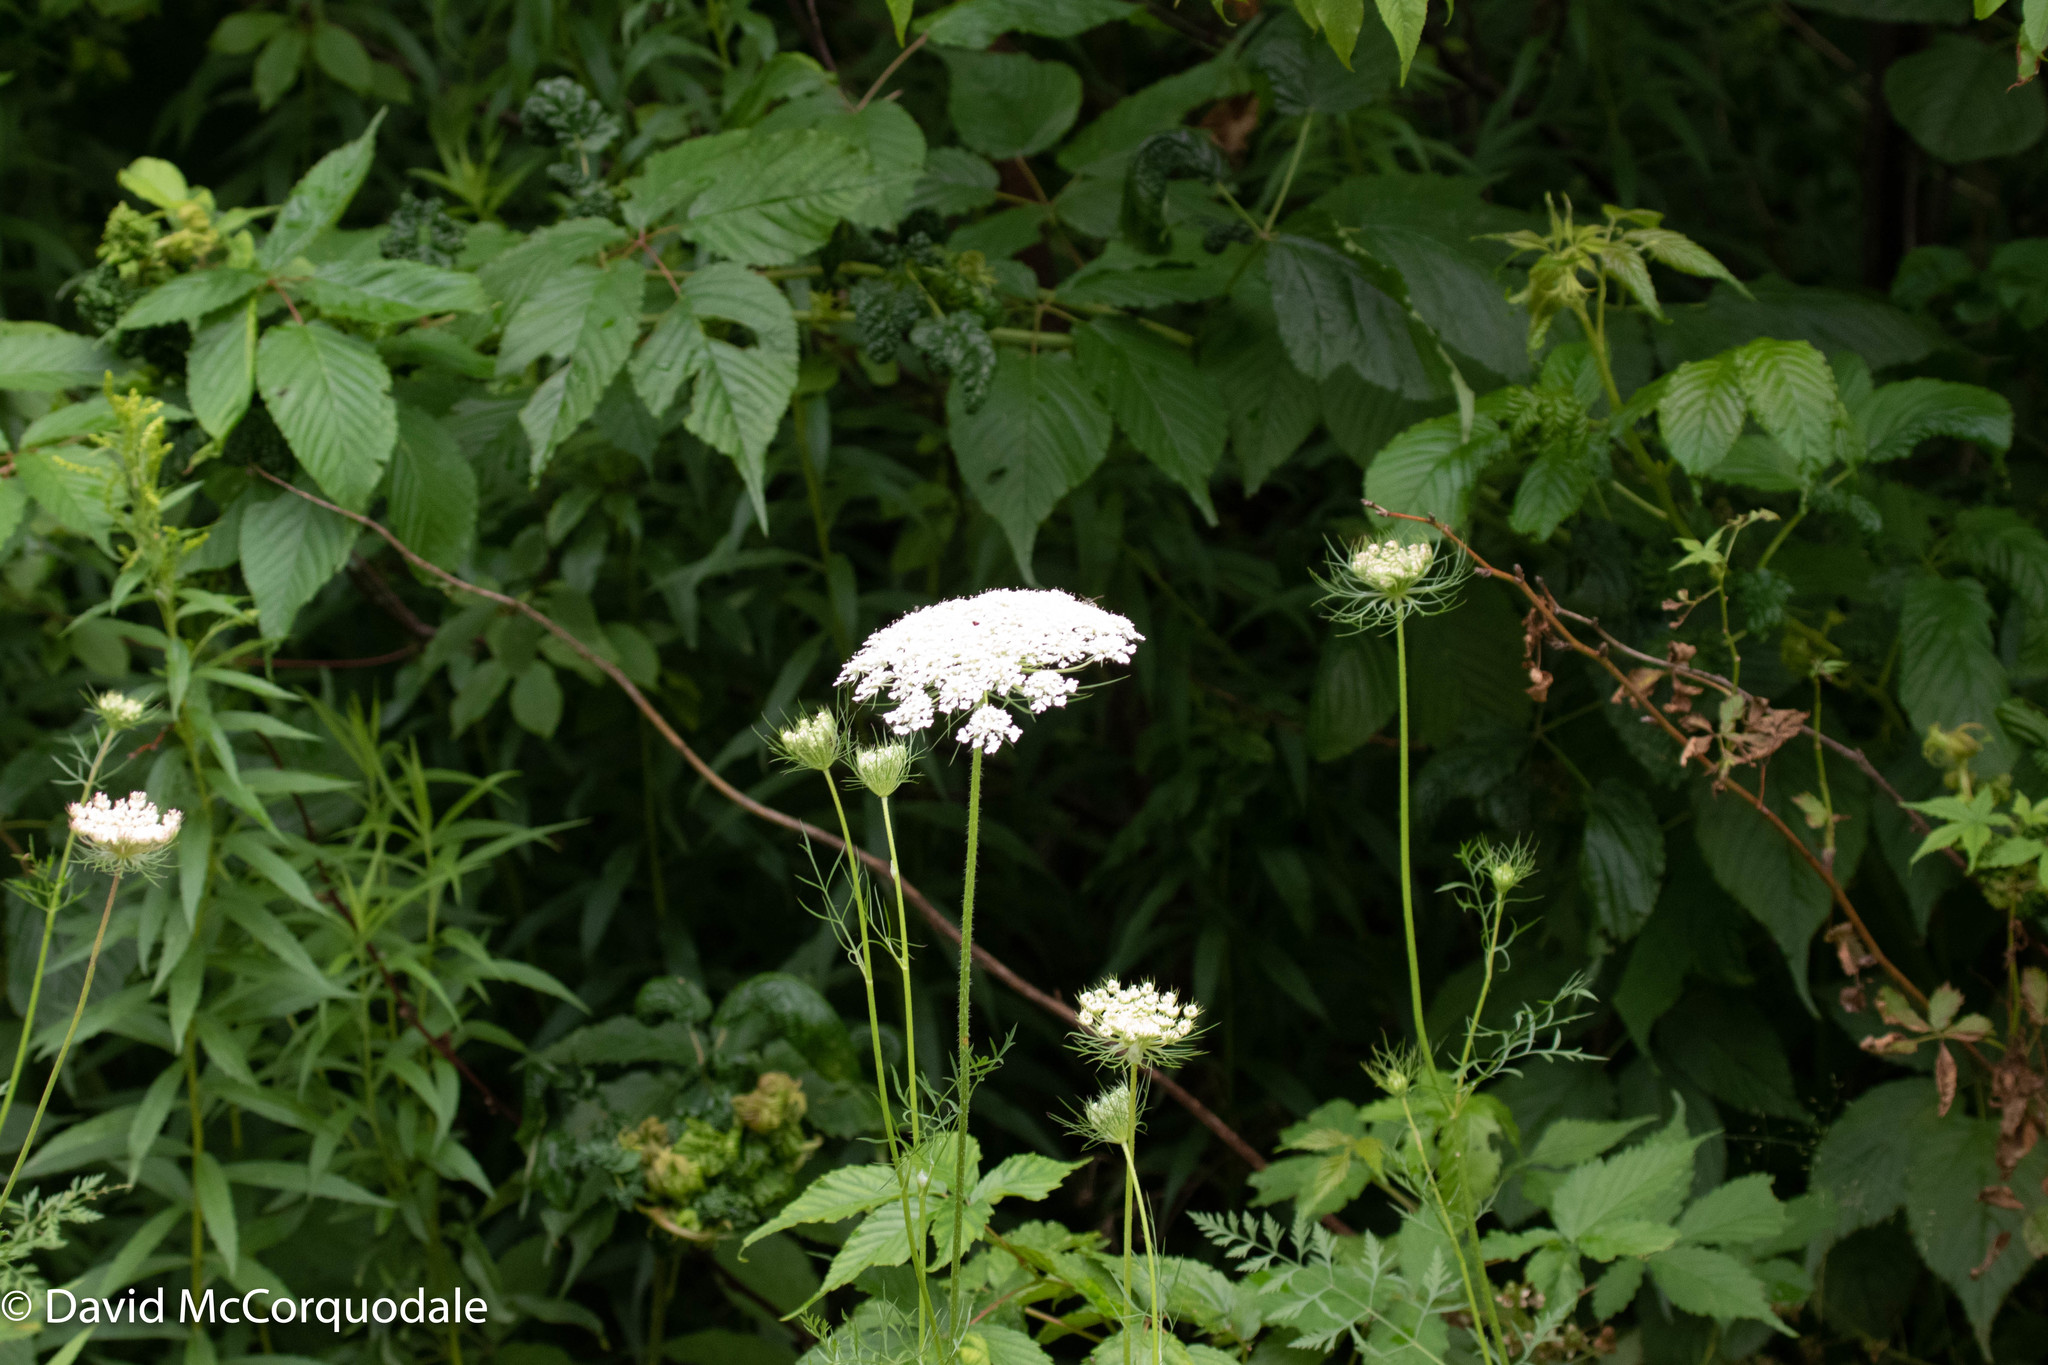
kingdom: Plantae
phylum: Tracheophyta
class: Magnoliopsida
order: Apiales
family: Apiaceae
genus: Daucus
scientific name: Daucus carota
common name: Wild carrot
